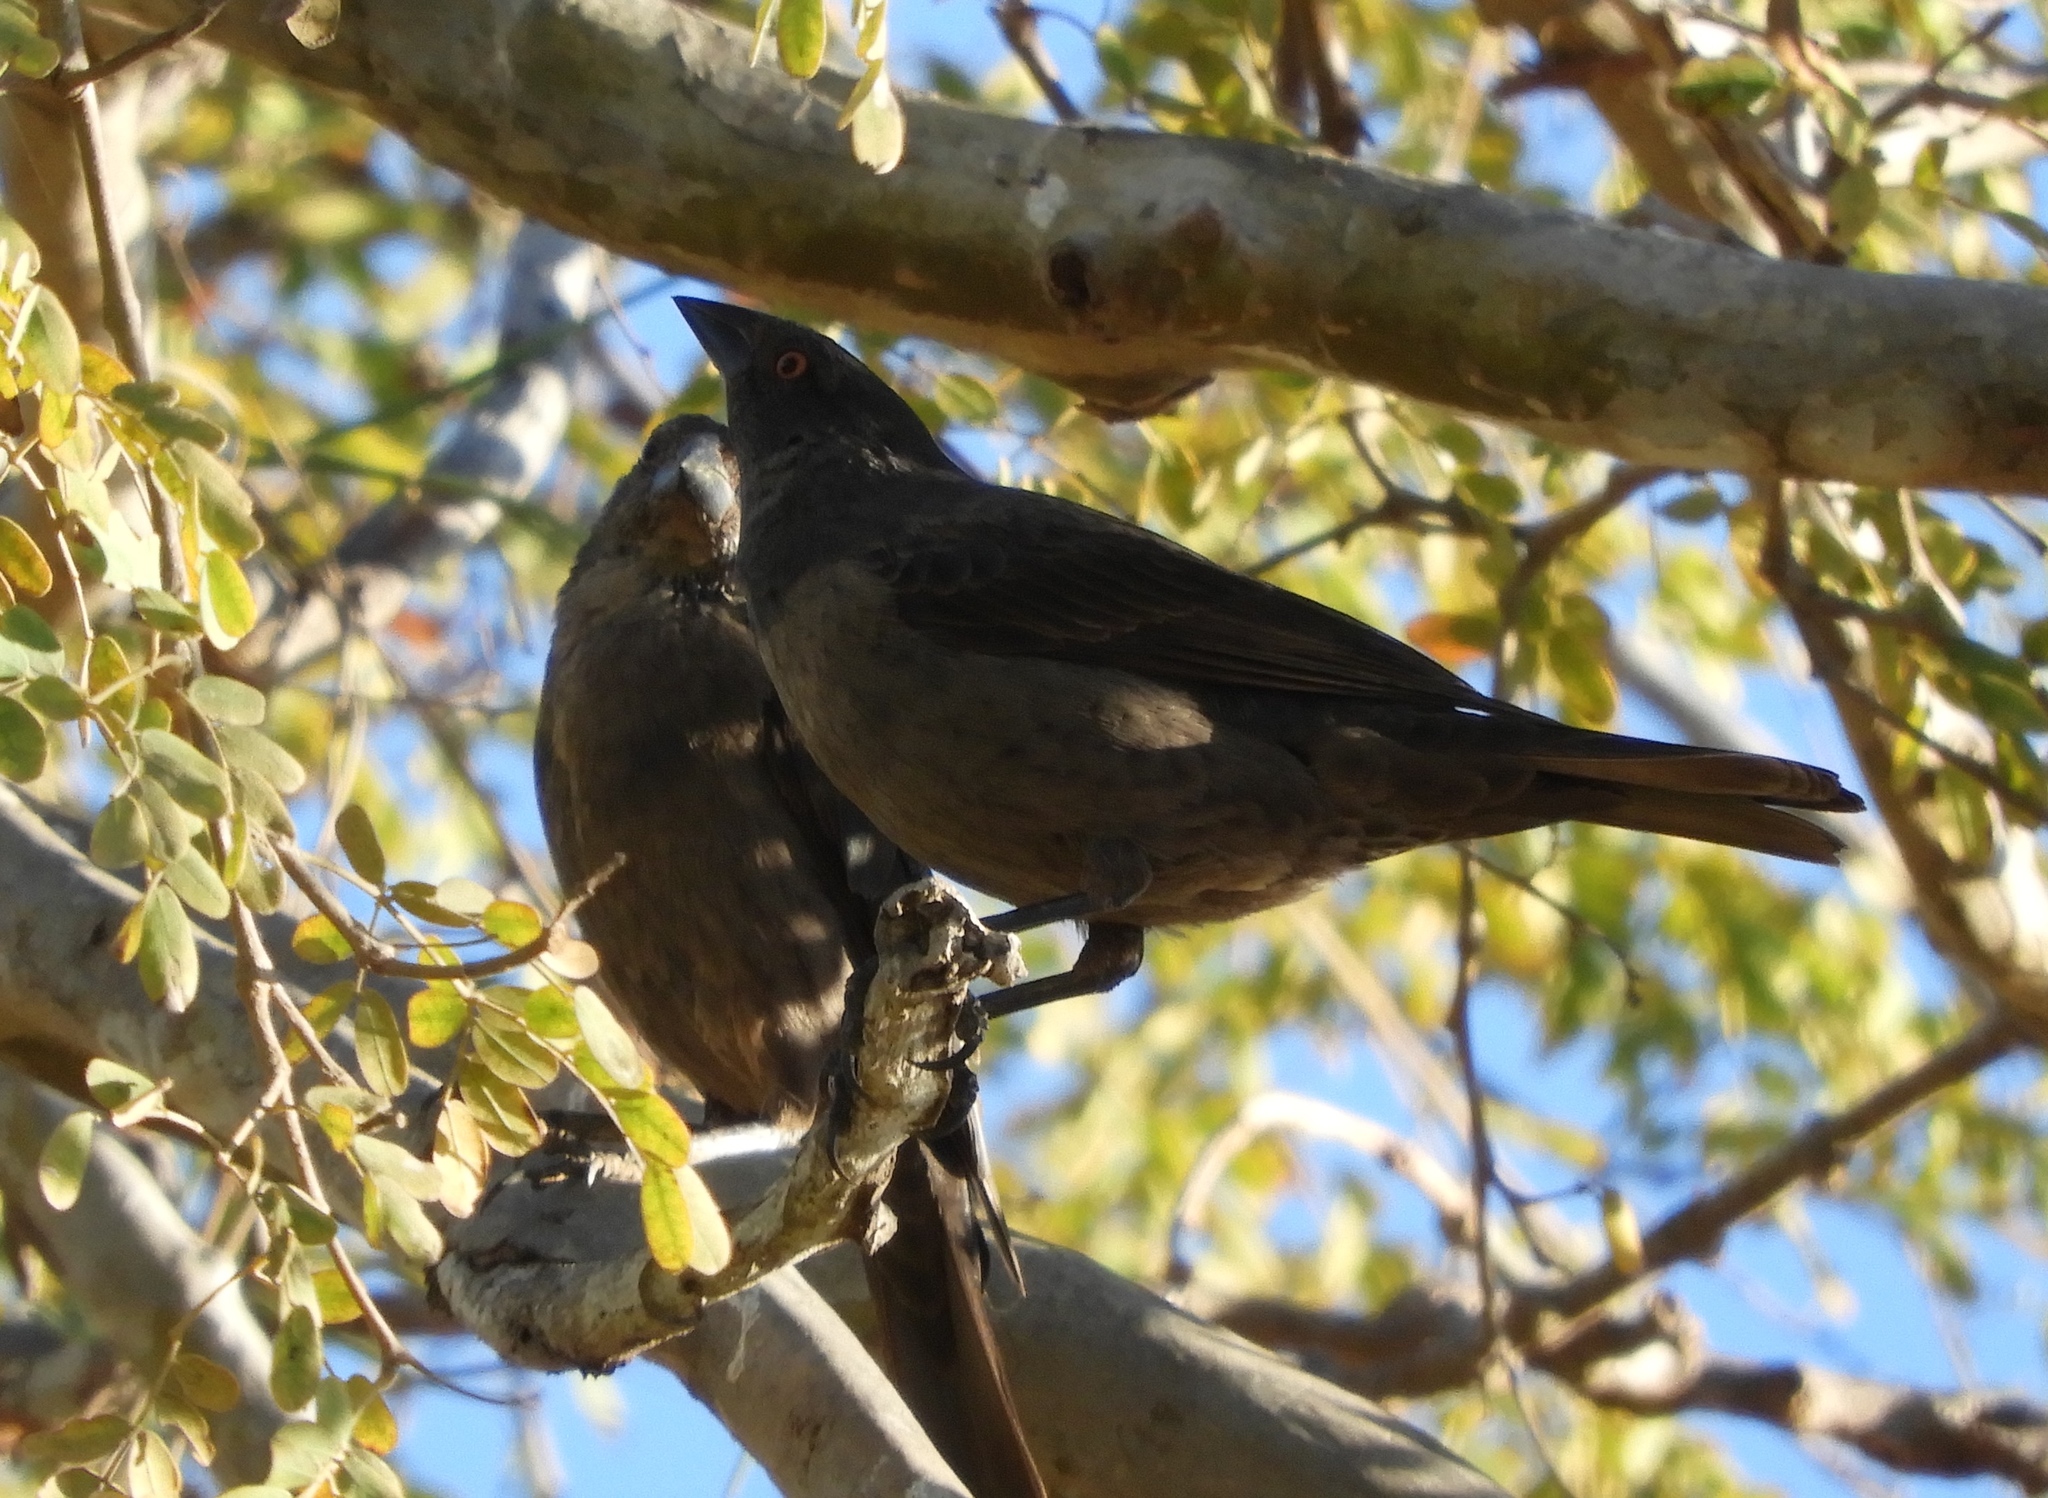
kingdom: Animalia
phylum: Chordata
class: Aves
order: Passeriformes
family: Icteridae
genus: Molothrus
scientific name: Molothrus aeneus
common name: Bronzed cowbird
